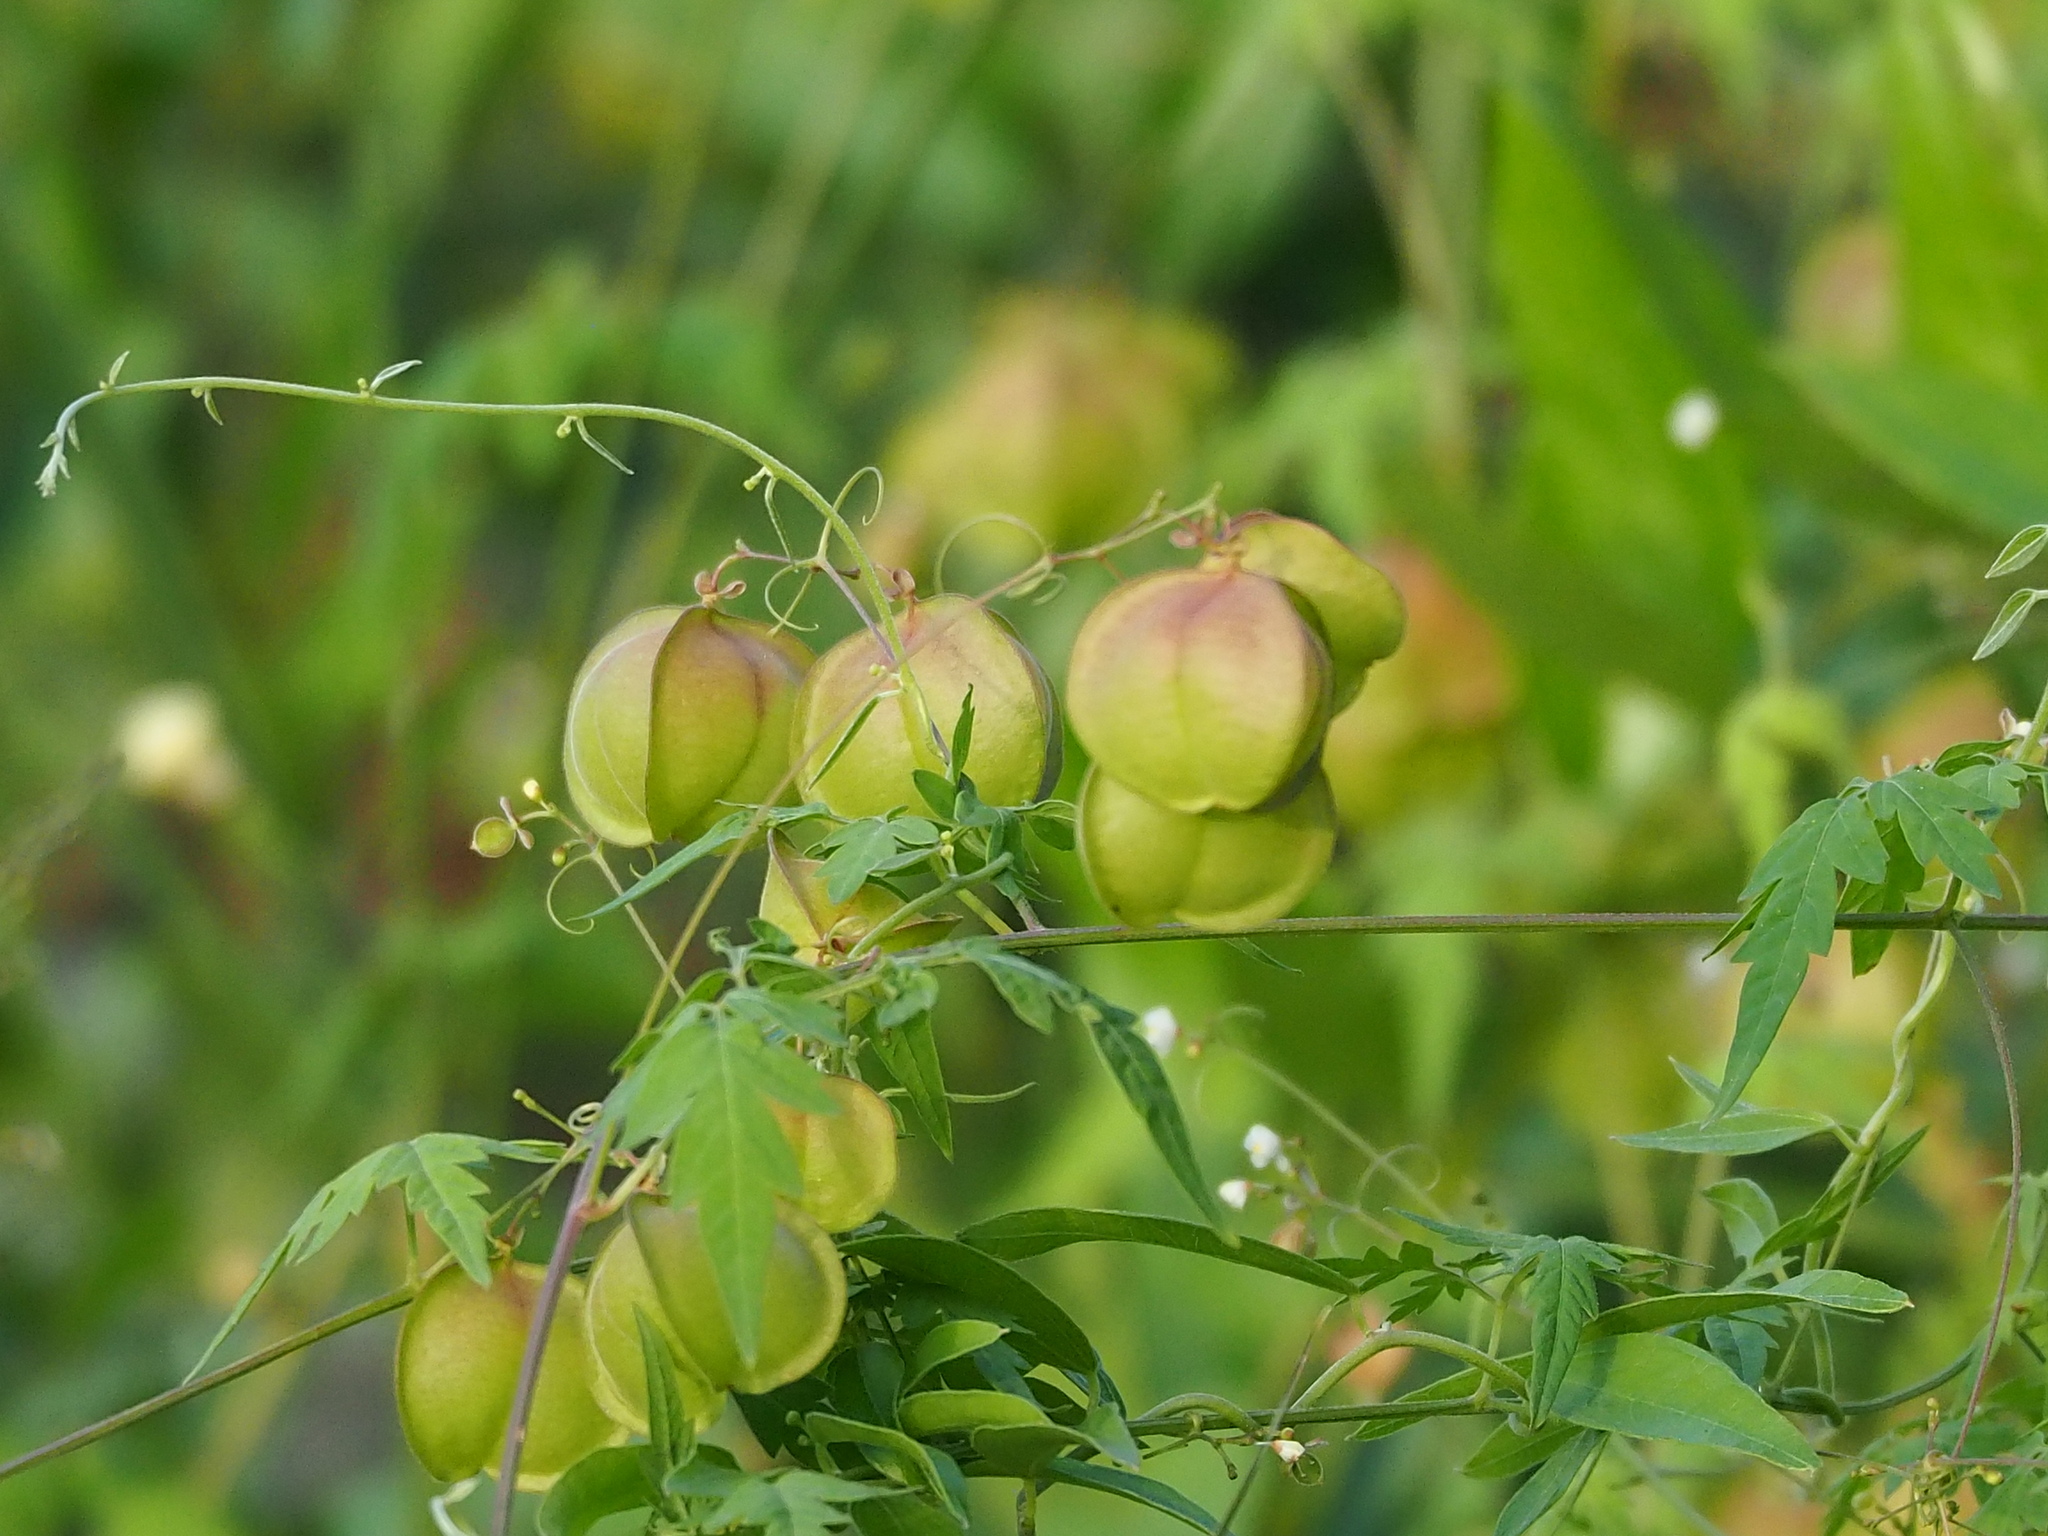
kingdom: Plantae
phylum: Tracheophyta
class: Magnoliopsida
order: Sapindales
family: Sapindaceae
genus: Cardiospermum
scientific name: Cardiospermum halicacabum
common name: Balloon vine
